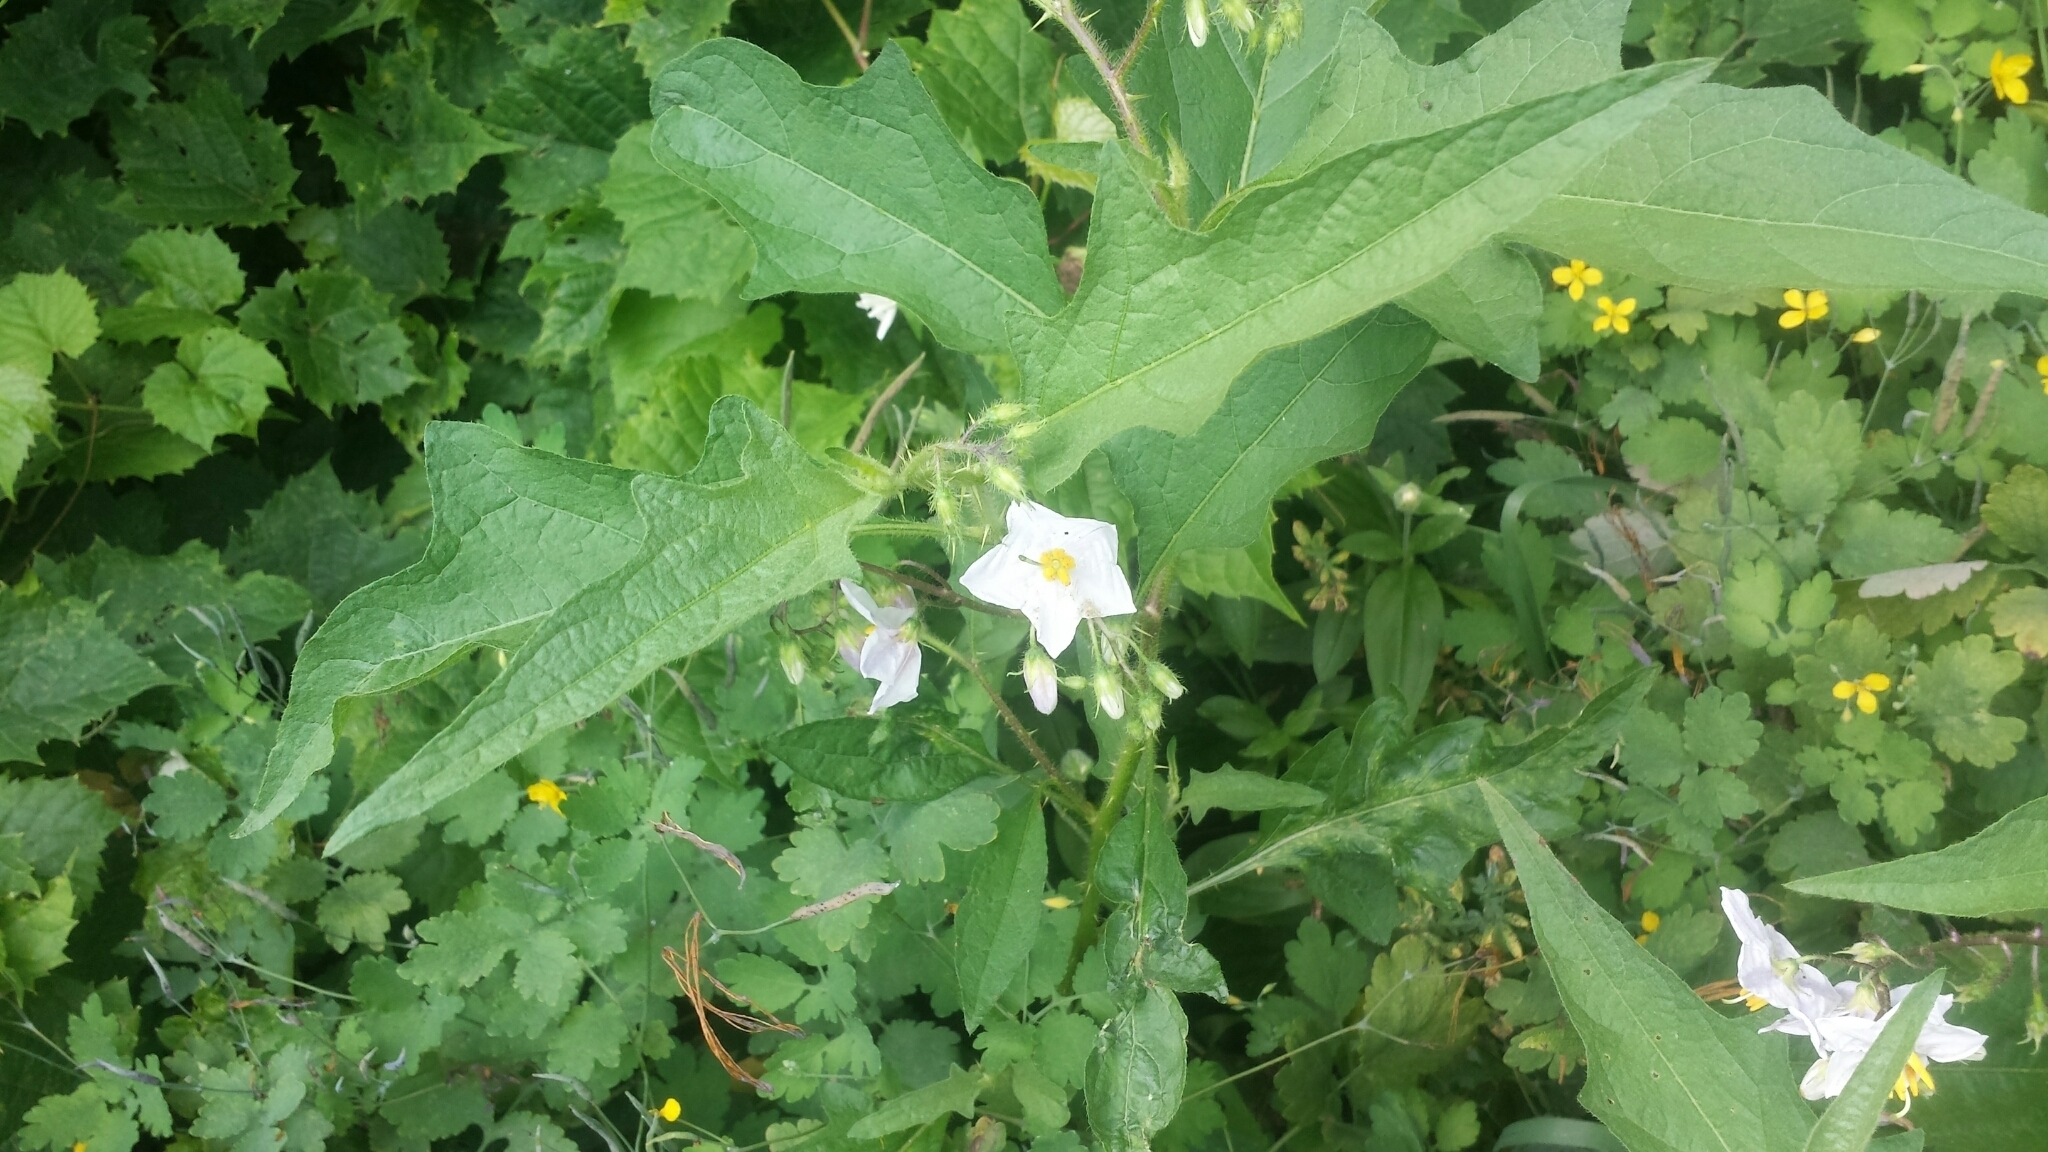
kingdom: Plantae
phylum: Tracheophyta
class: Magnoliopsida
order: Solanales
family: Solanaceae
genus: Solanum
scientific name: Solanum carolinense
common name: Horse-nettle
